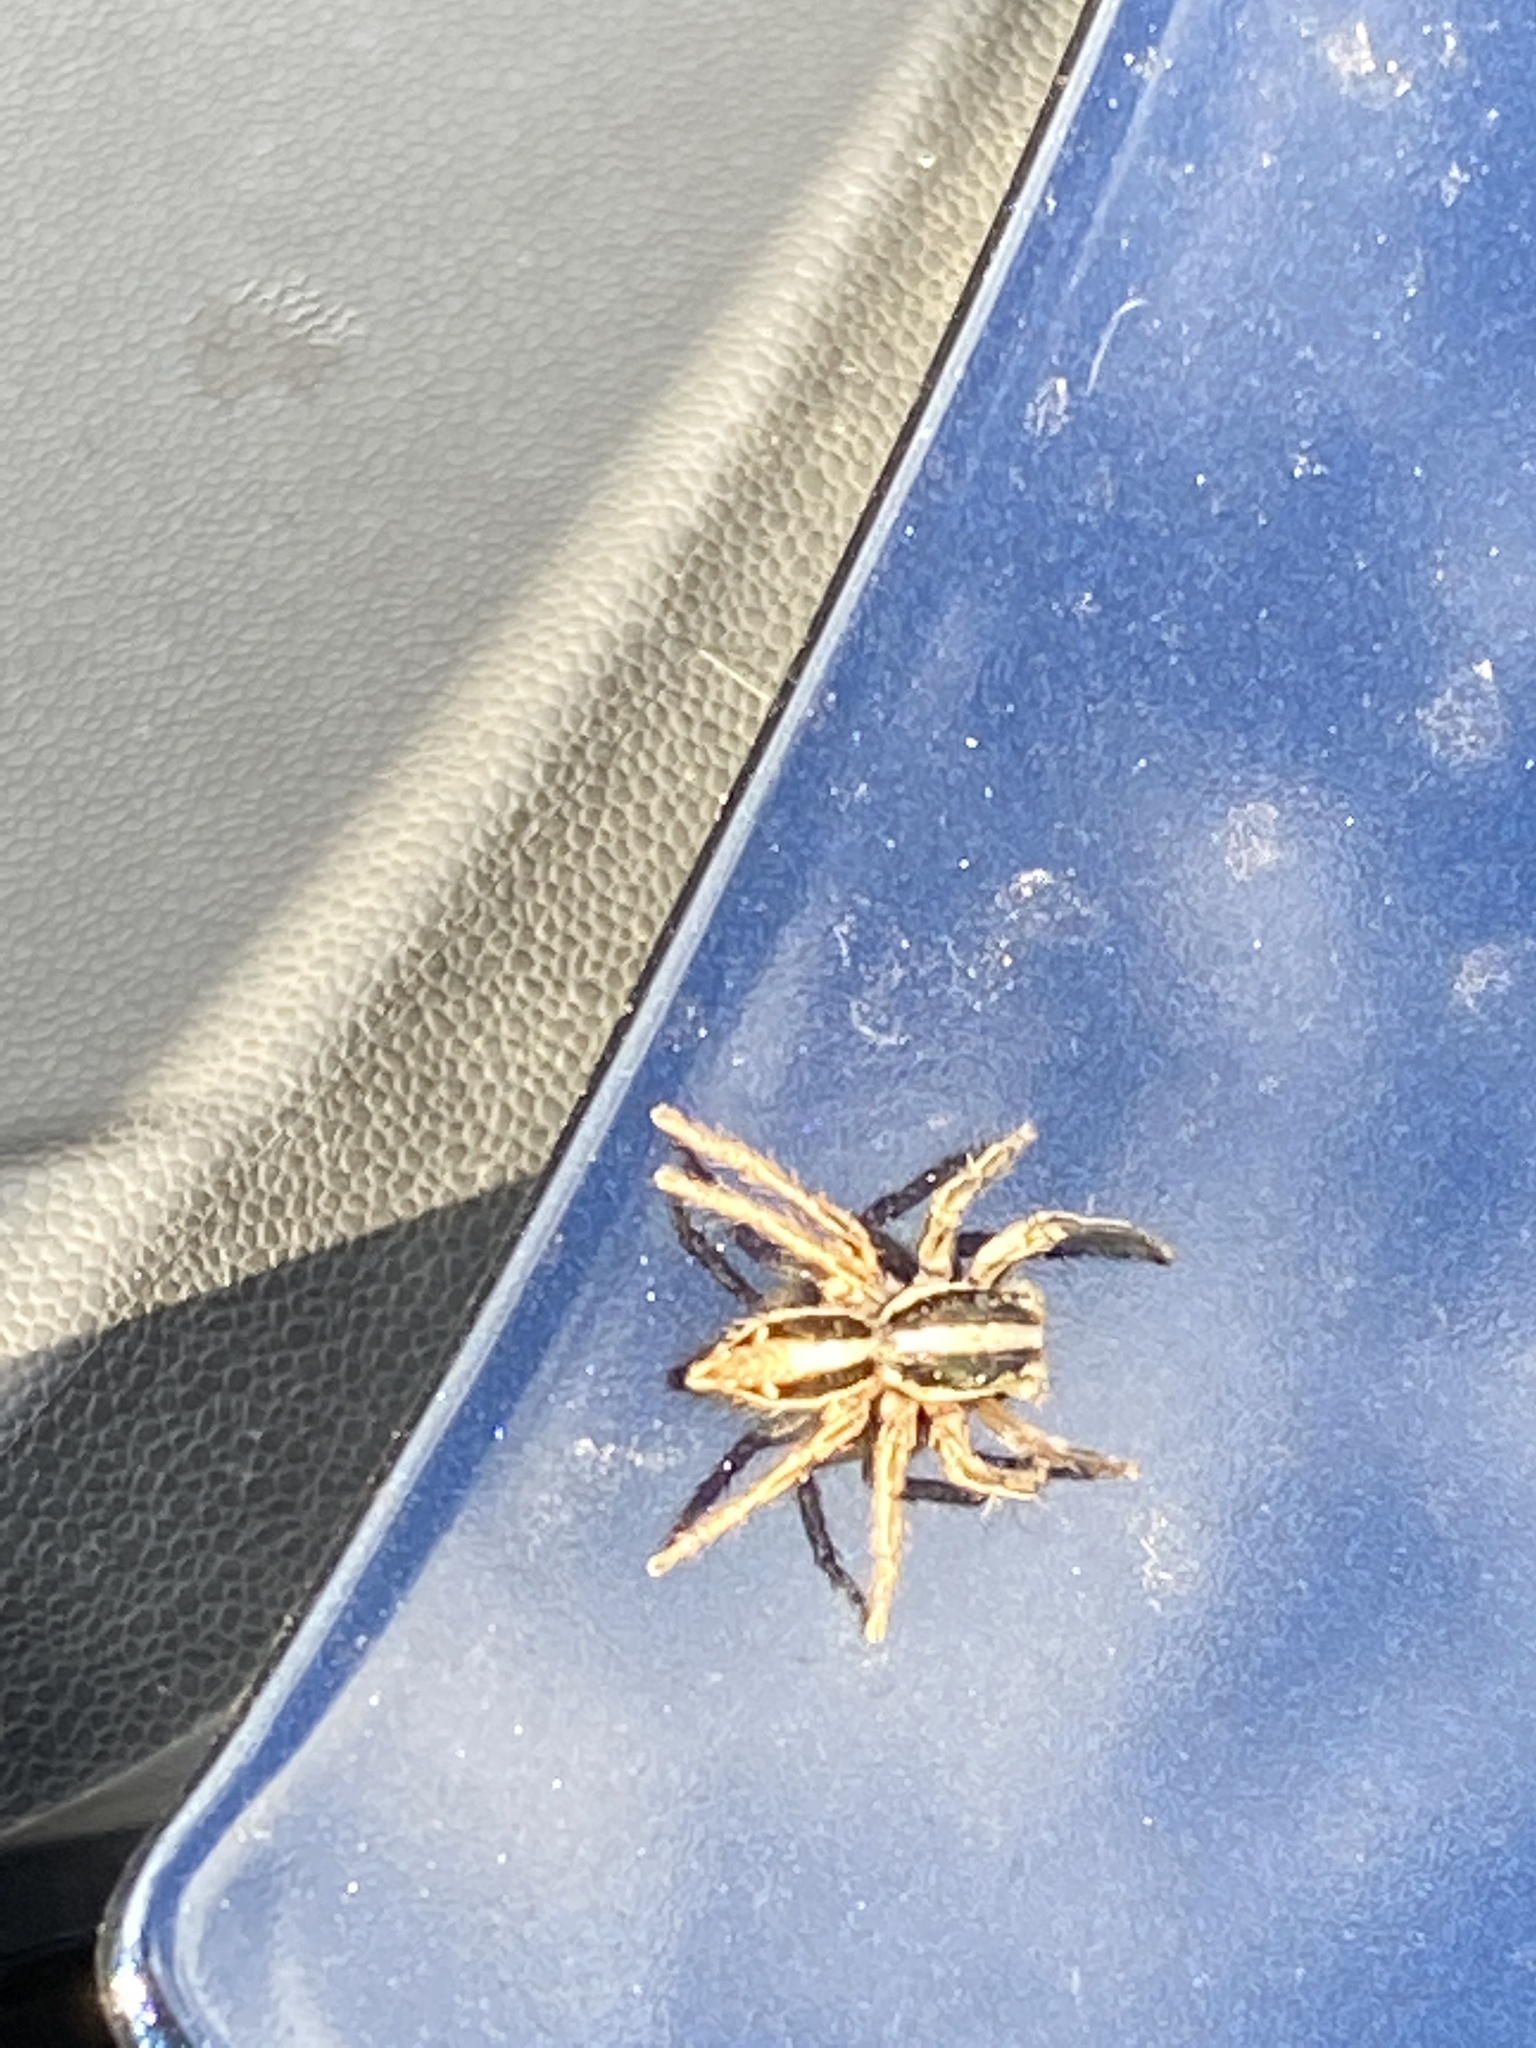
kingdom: Animalia
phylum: Arthropoda
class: Arachnida
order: Araneae
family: Salticidae
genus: Plexippus
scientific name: Plexippus paykulli
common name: Pantropical jumper
